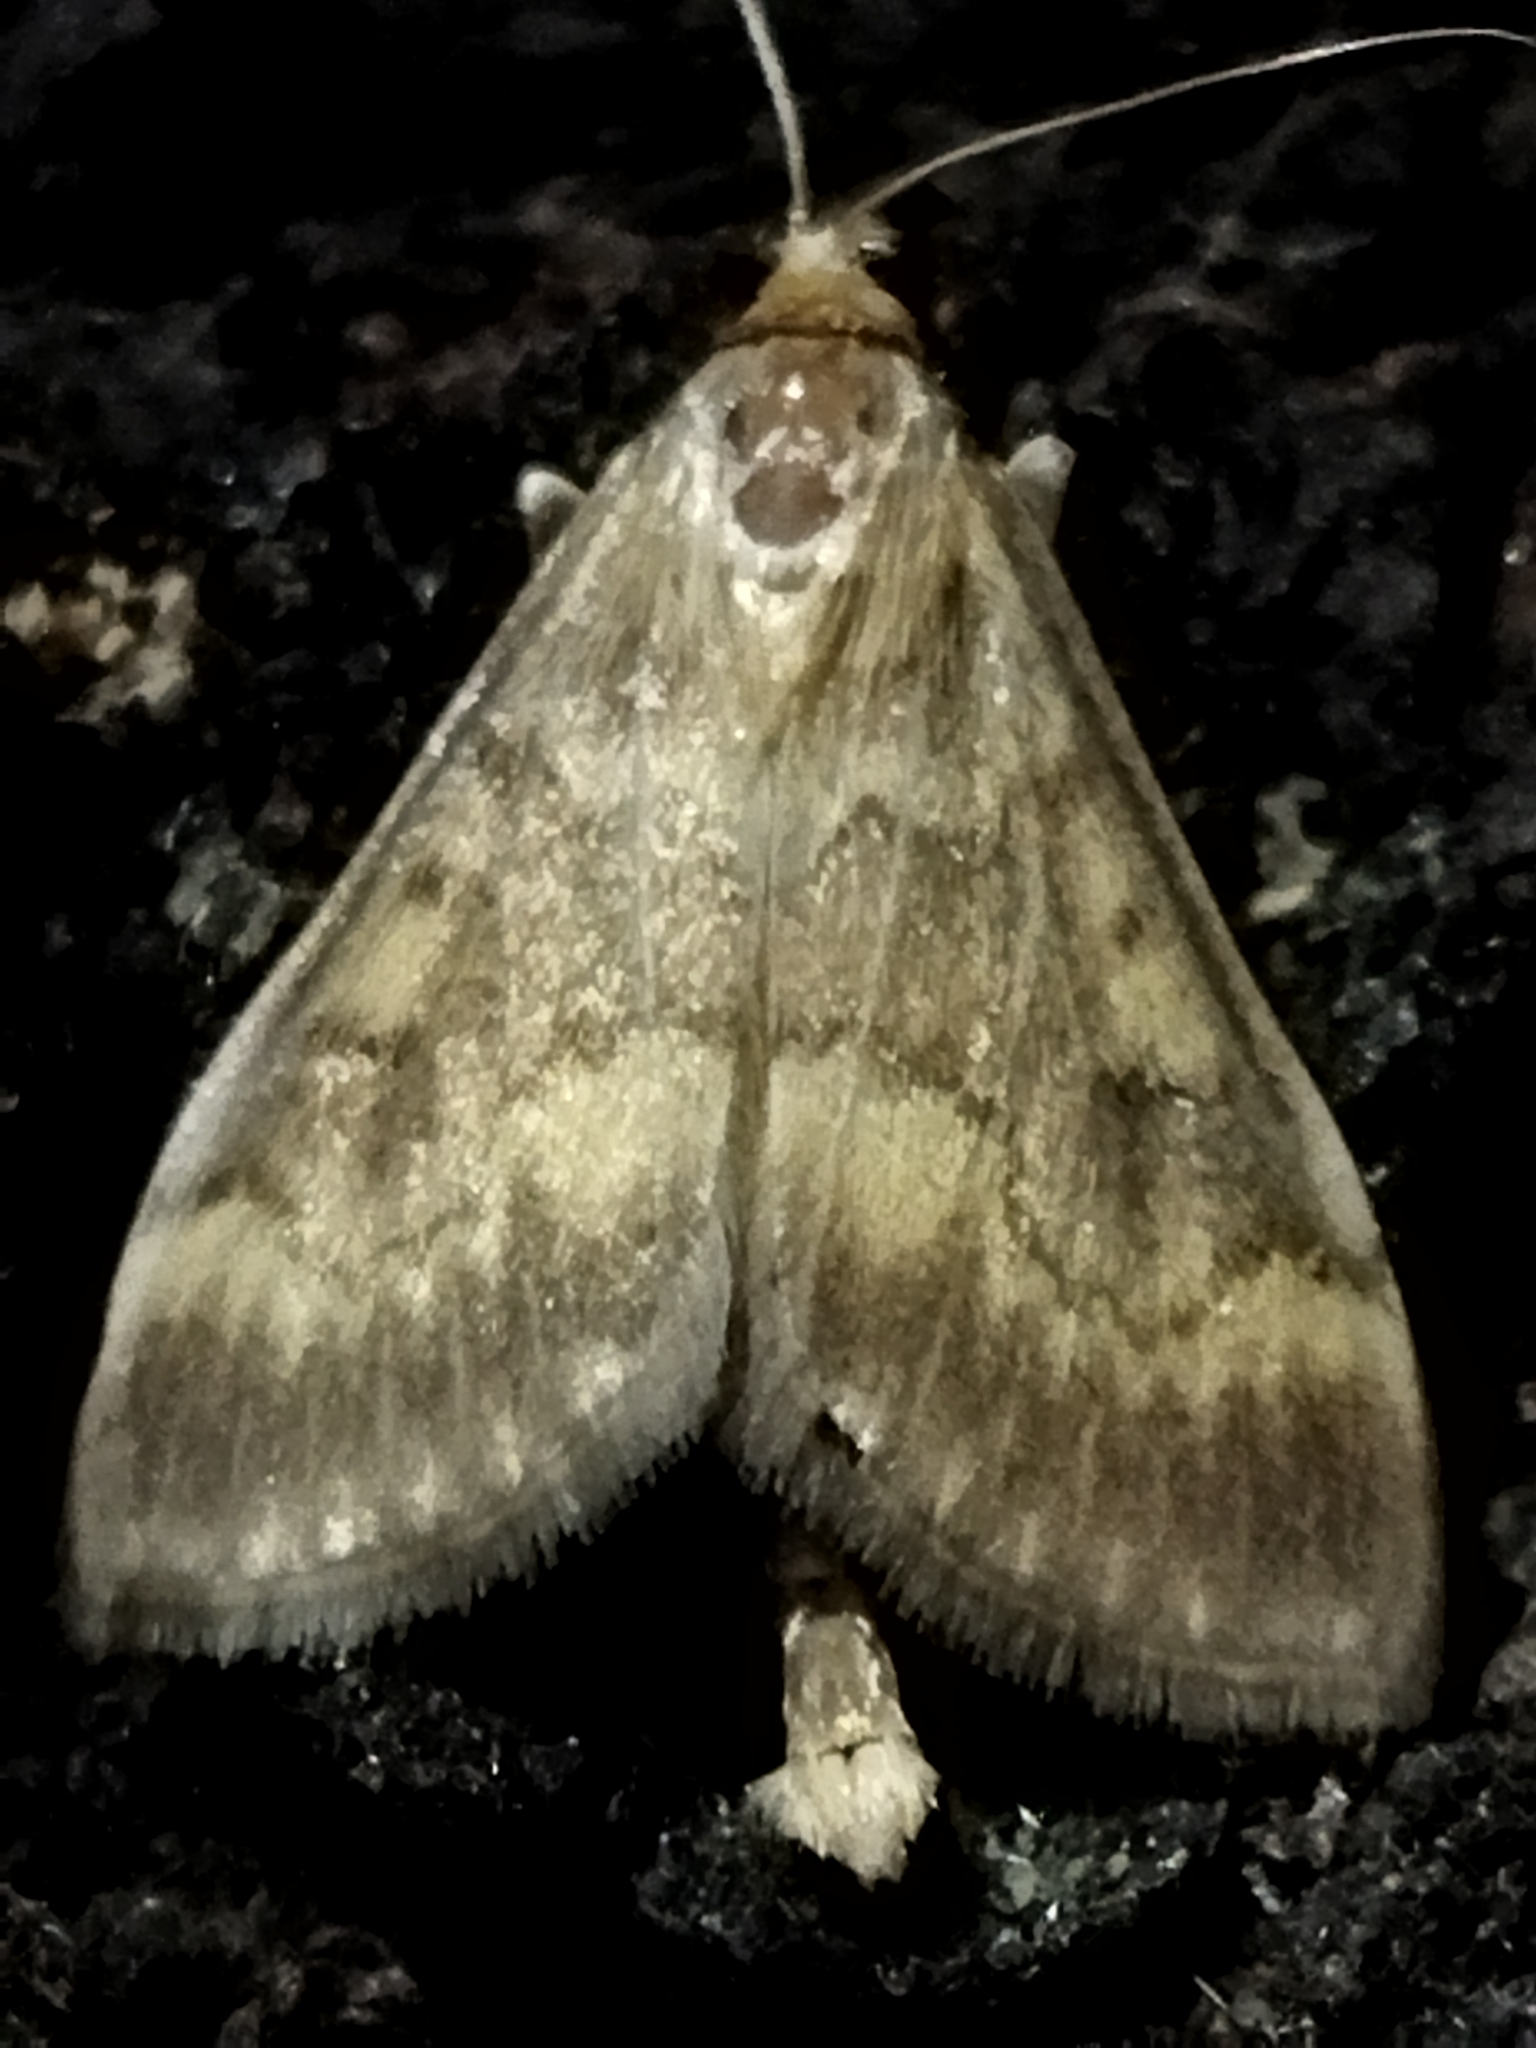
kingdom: Animalia
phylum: Arthropoda
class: Insecta
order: Lepidoptera
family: Crambidae
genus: Ostrinia
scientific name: Ostrinia nubilalis
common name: European corn borer
